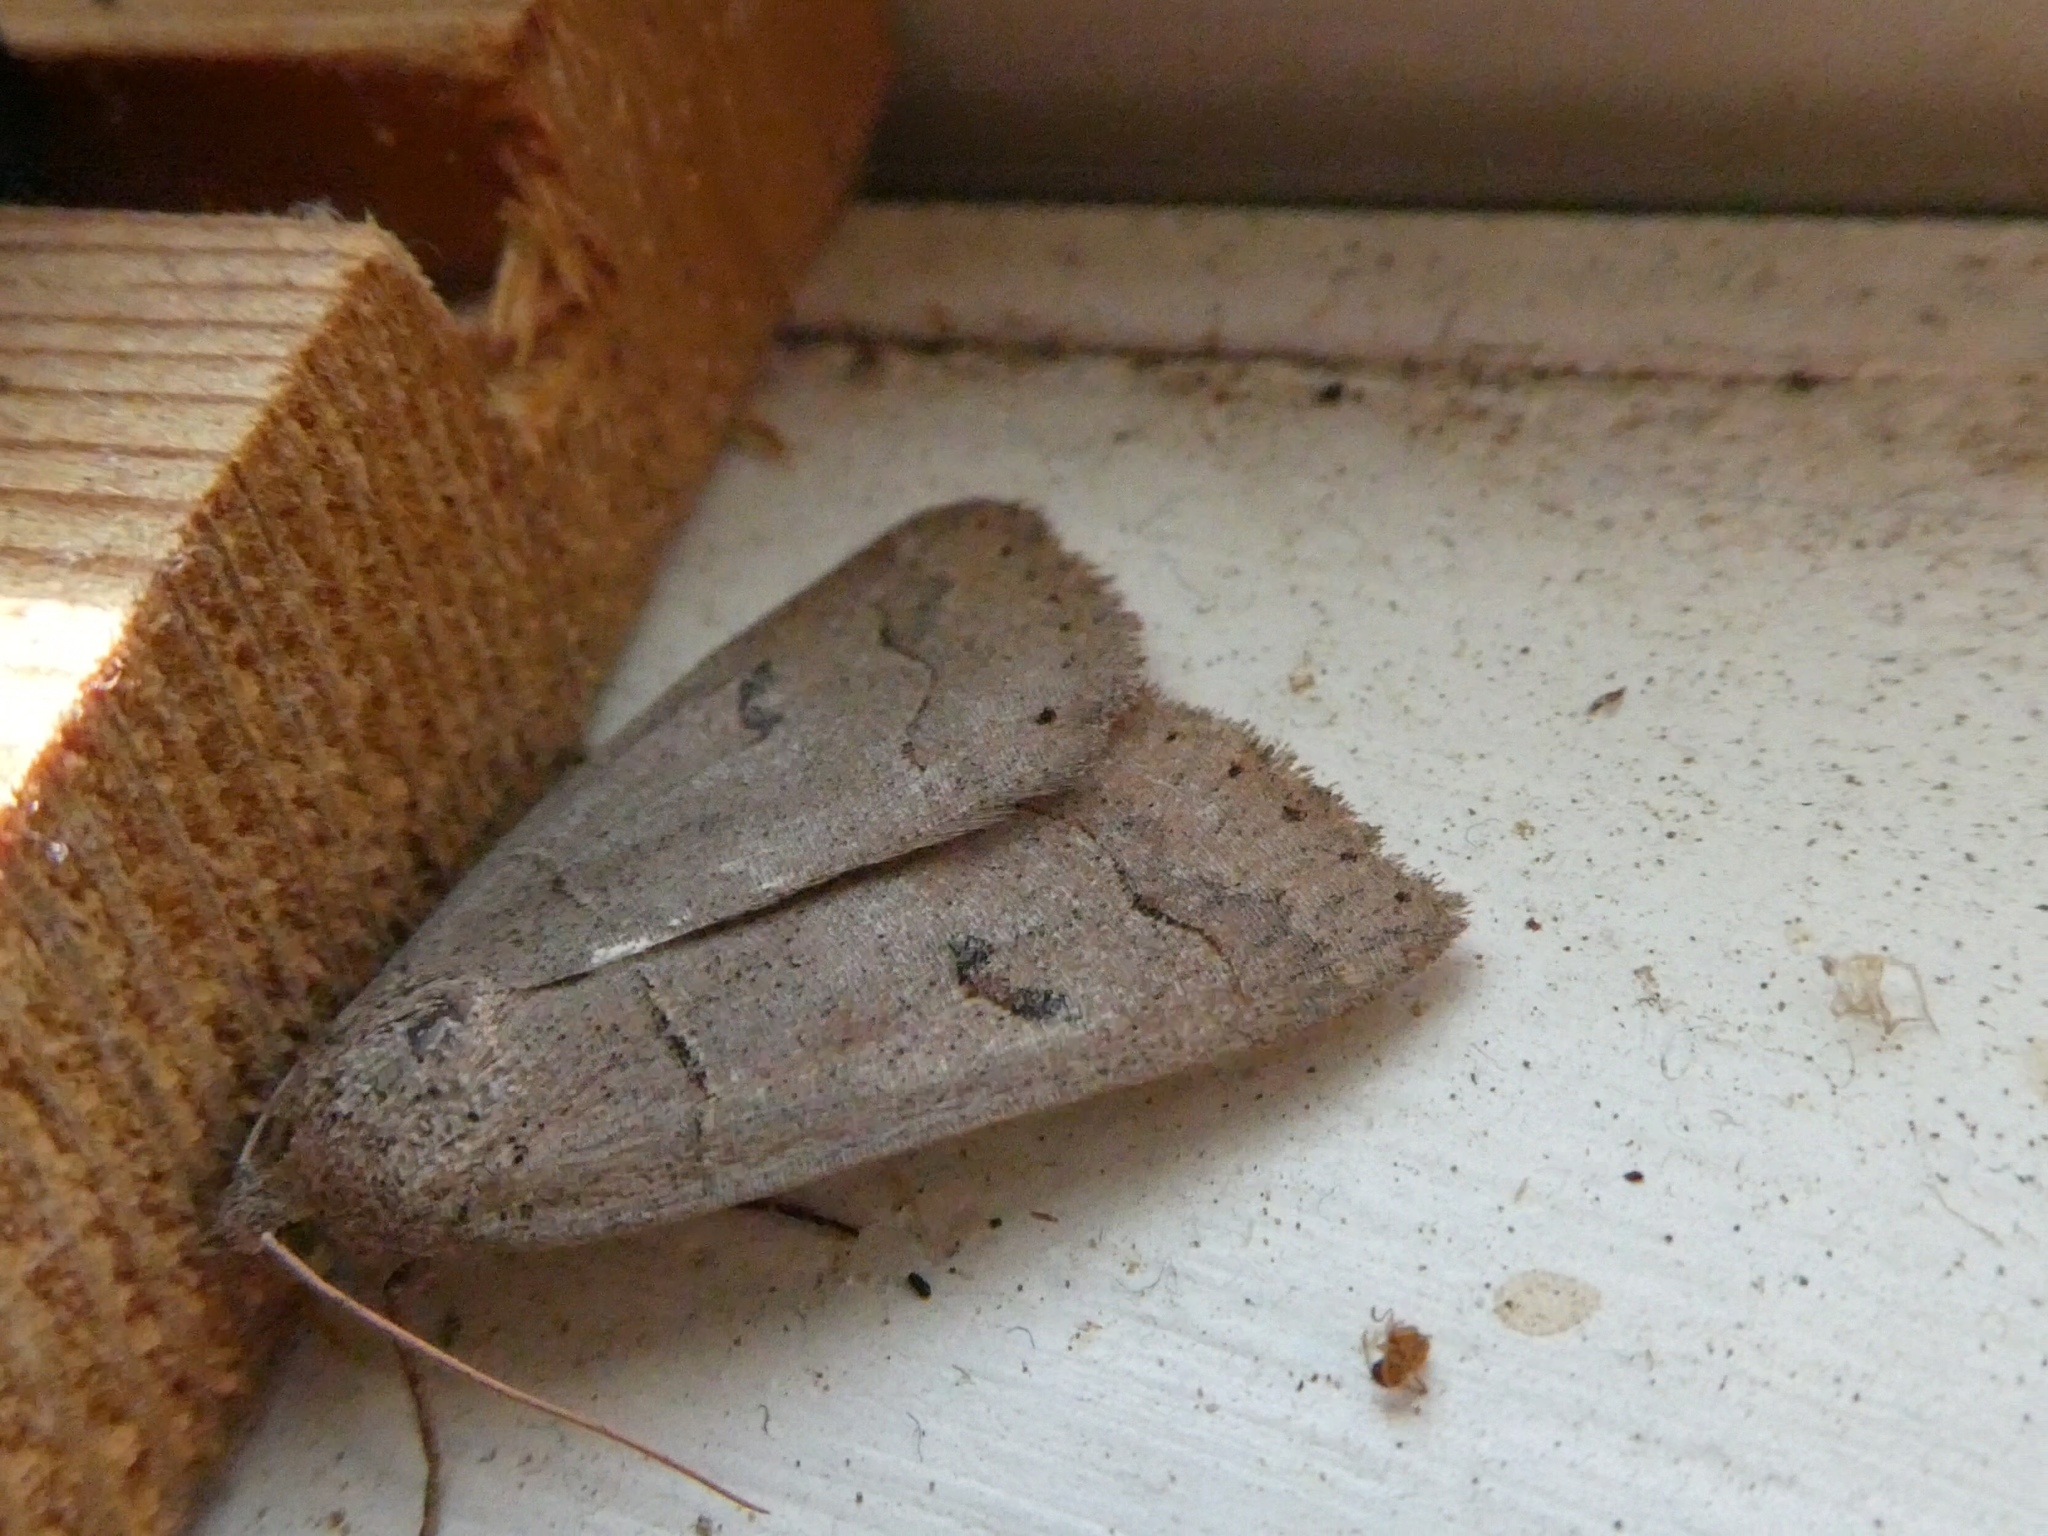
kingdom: Animalia
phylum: Arthropoda
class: Insecta
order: Lepidoptera
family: Erebidae
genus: Phoberia
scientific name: Phoberia atomaris
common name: Common oak moth
